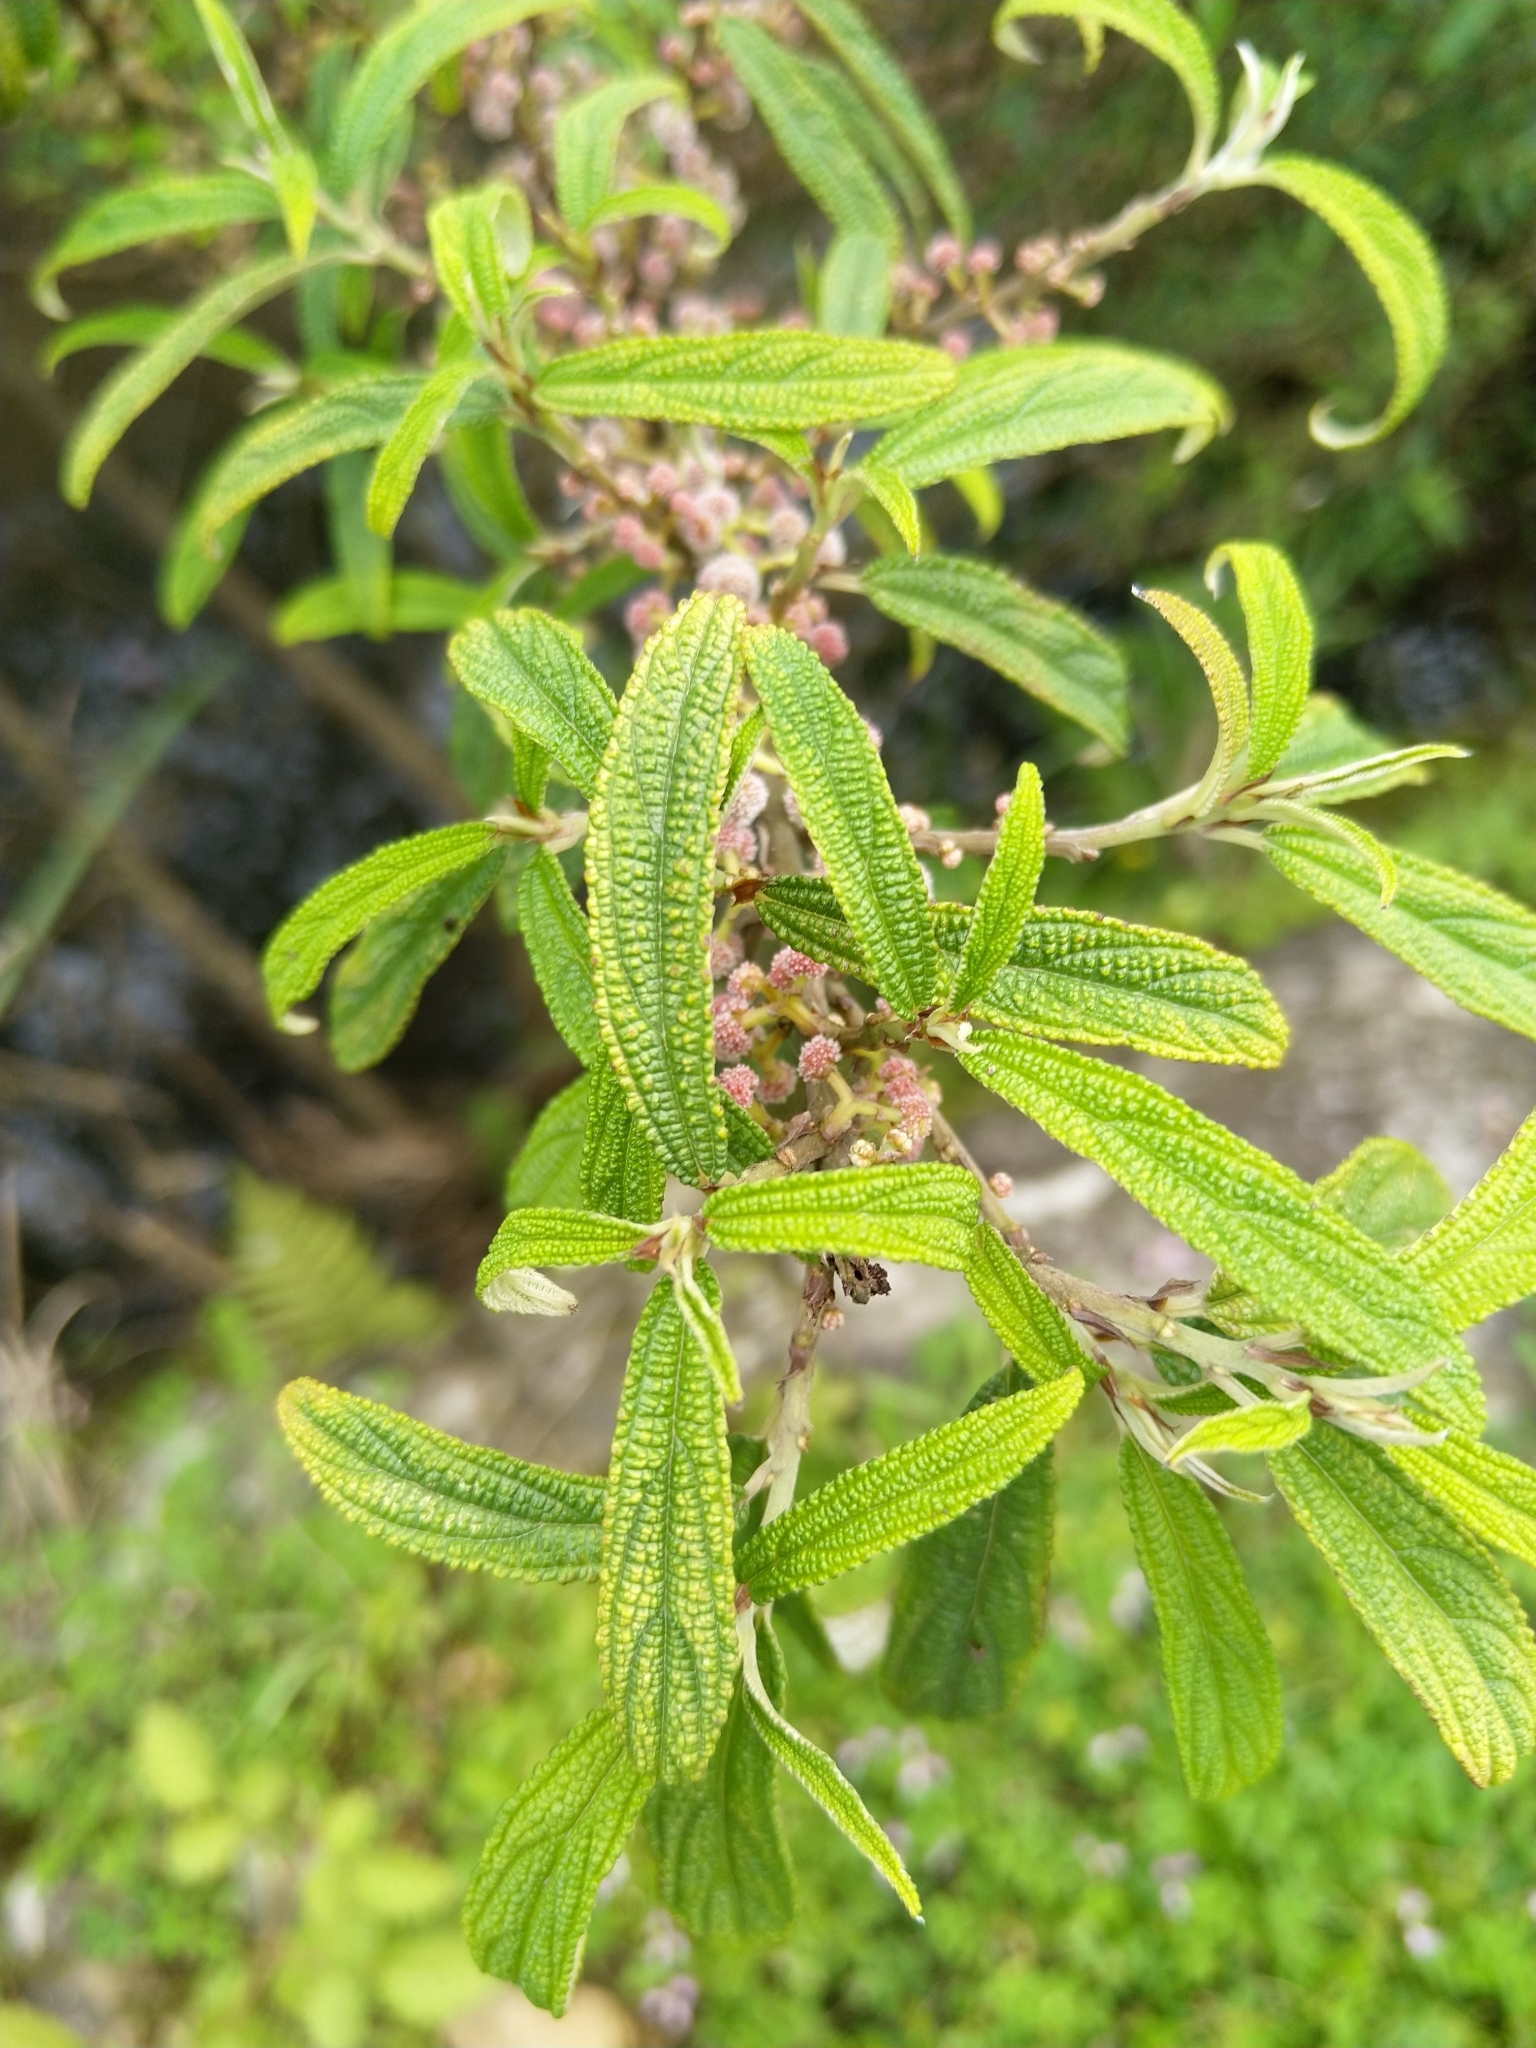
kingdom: Plantae
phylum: Tracheophyta
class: Magnoliopsida
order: Rosales
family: Urticaceae
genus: Debregeasia
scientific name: Debregeasia orientalis
